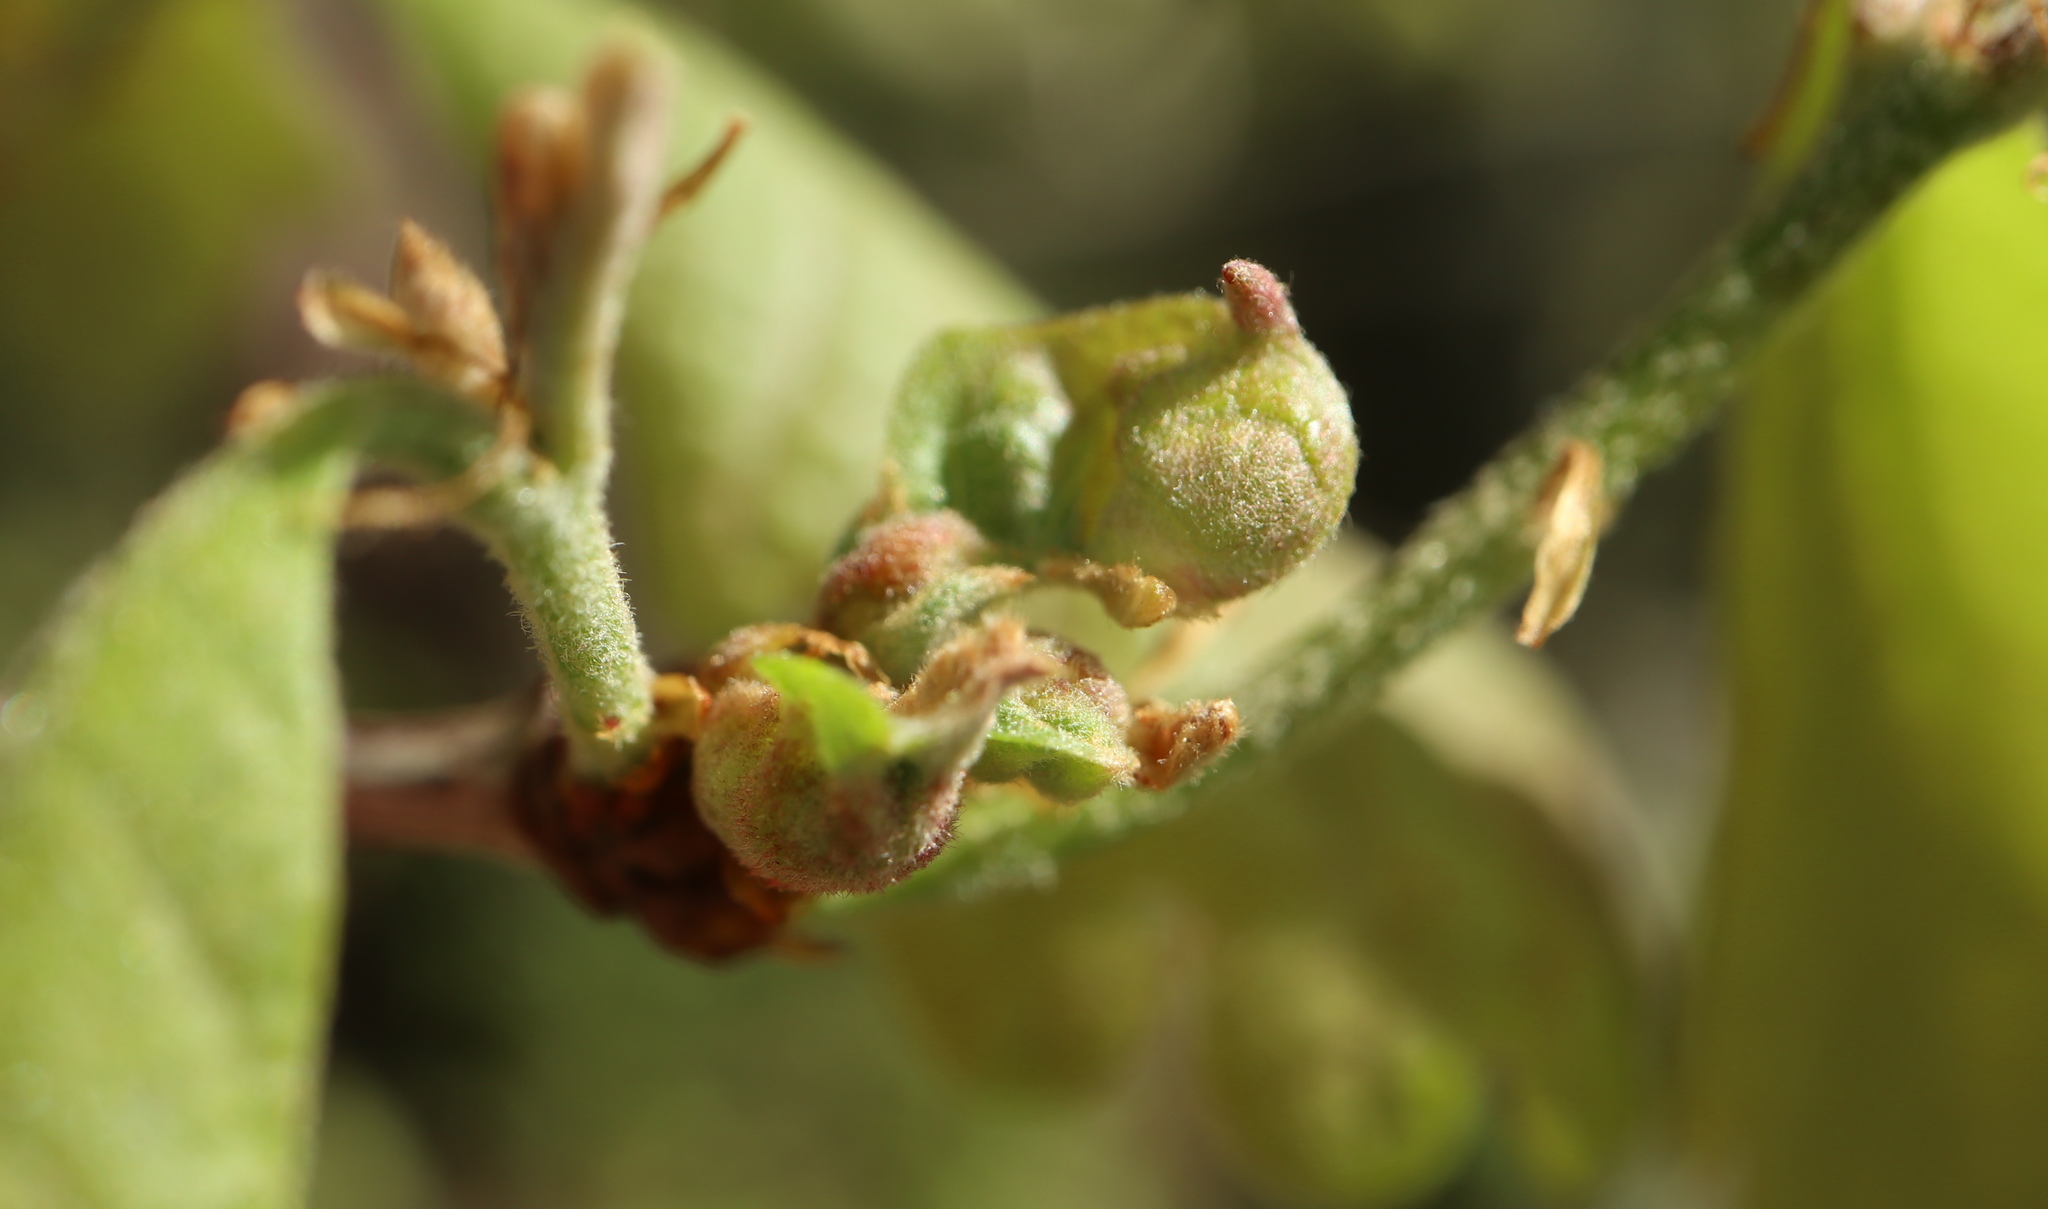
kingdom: Animalia
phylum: Arthropoda
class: Insecta
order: Hymenoptera
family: Cynipidae
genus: Neuroterus
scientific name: Neuroterus minutulus
